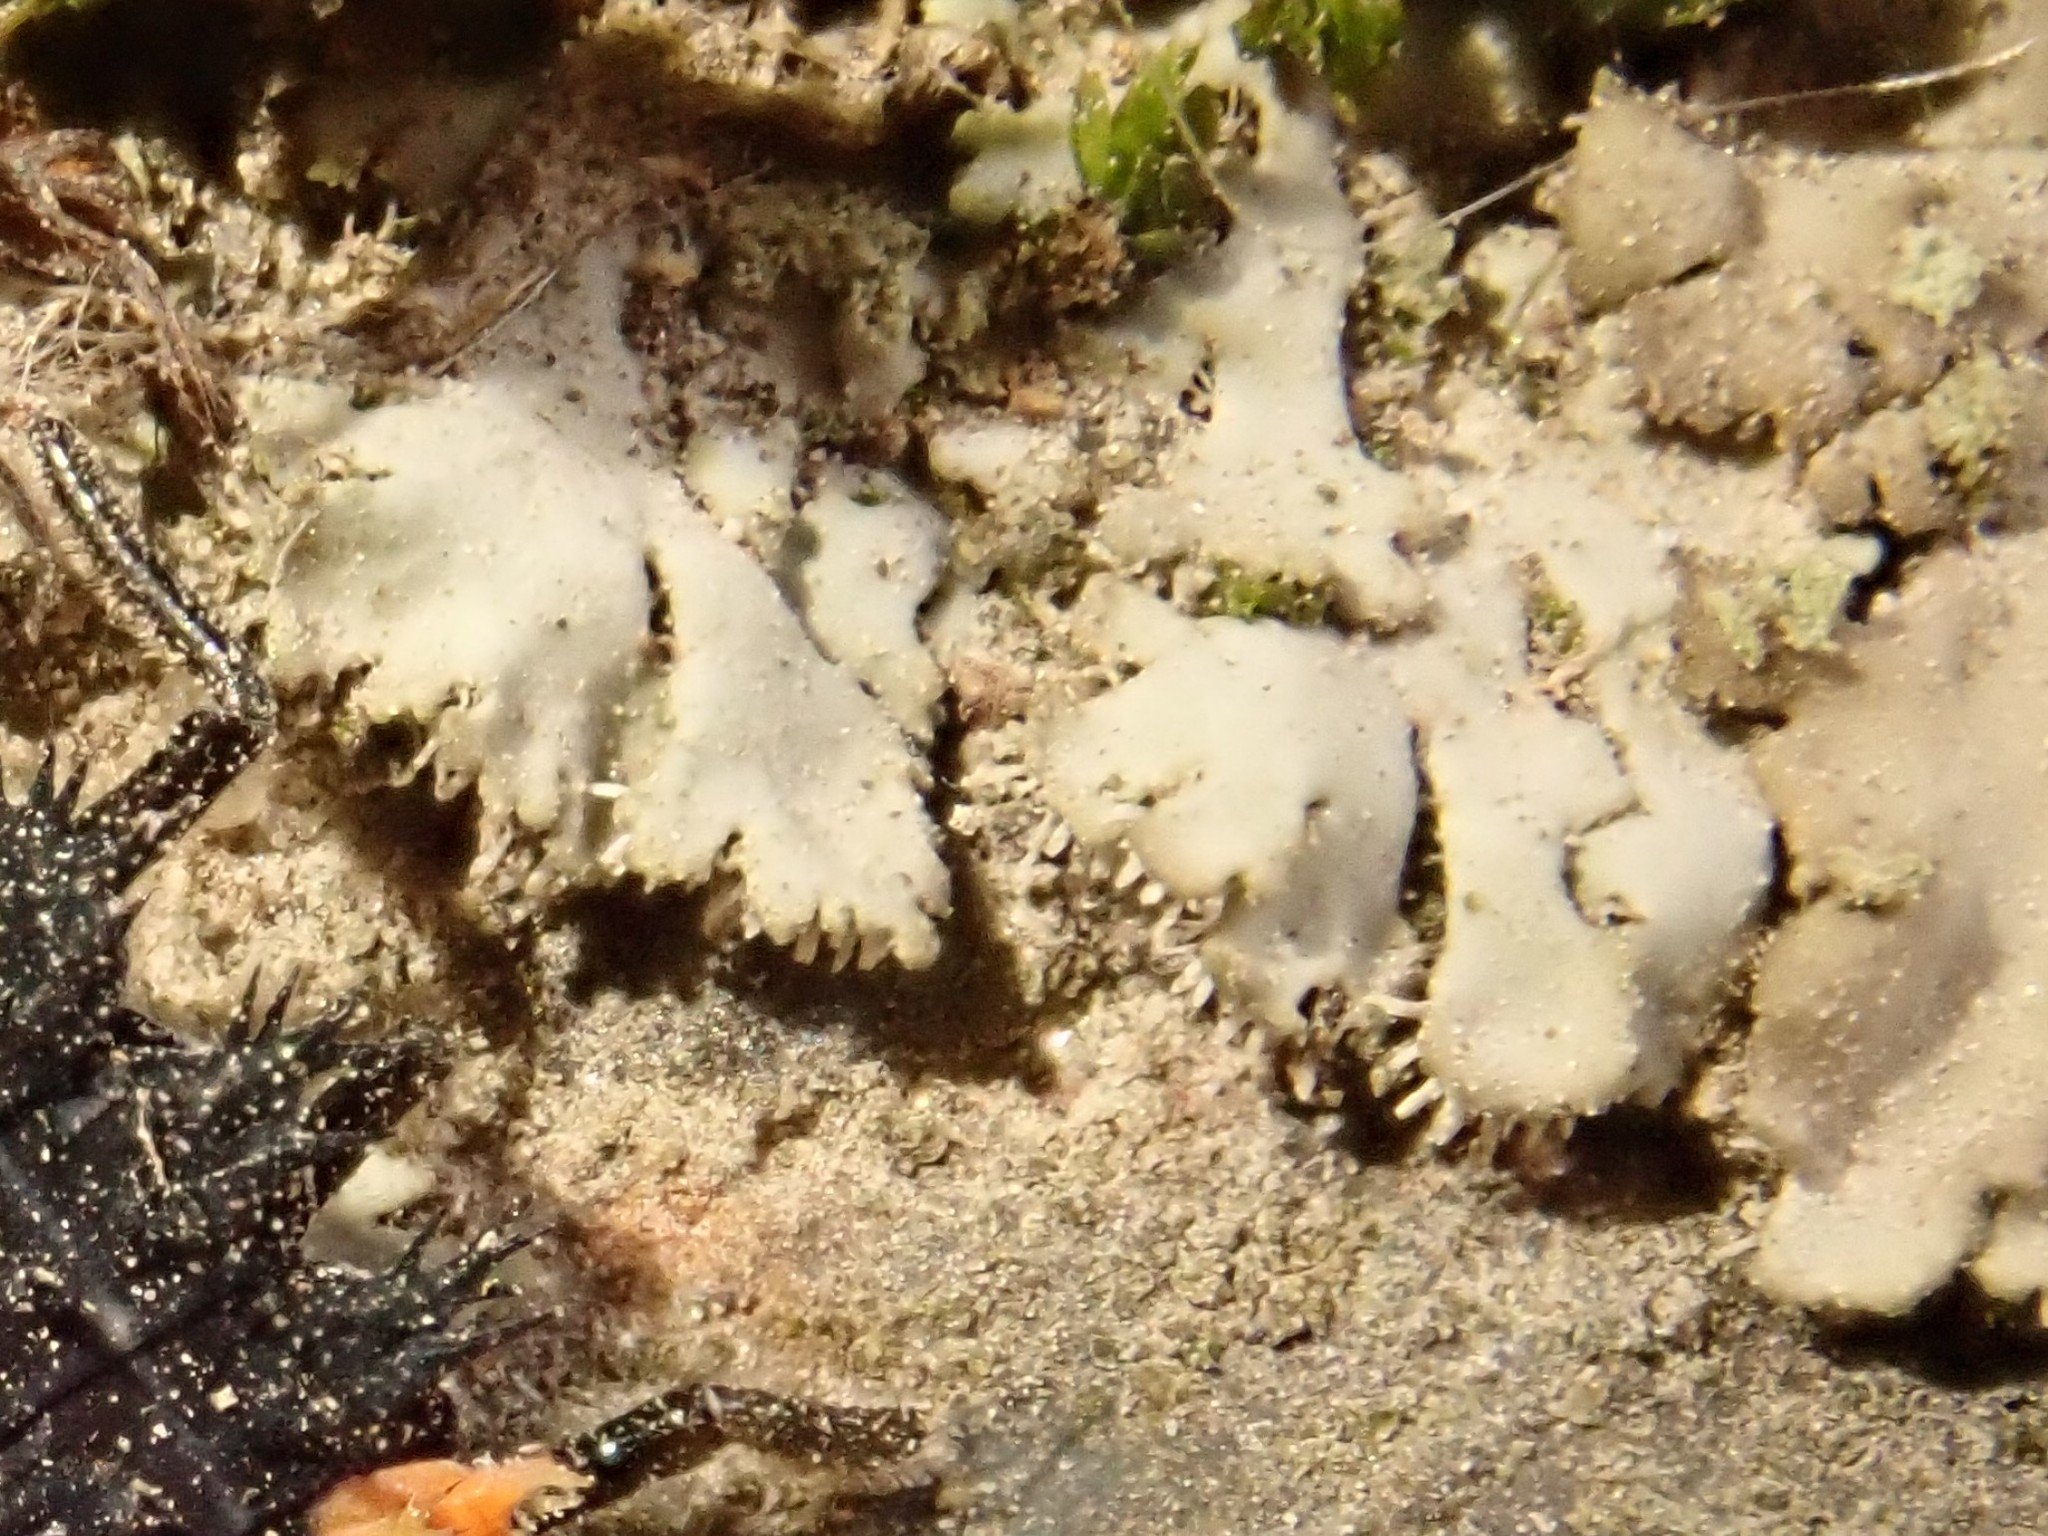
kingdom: Fungi
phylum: Ascomycota
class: Lecanoromycetes
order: Caliciales
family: Physciaceae
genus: Phaeophyscia
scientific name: Phaeophyscia orbicularis
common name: Mealy shadow lichen
